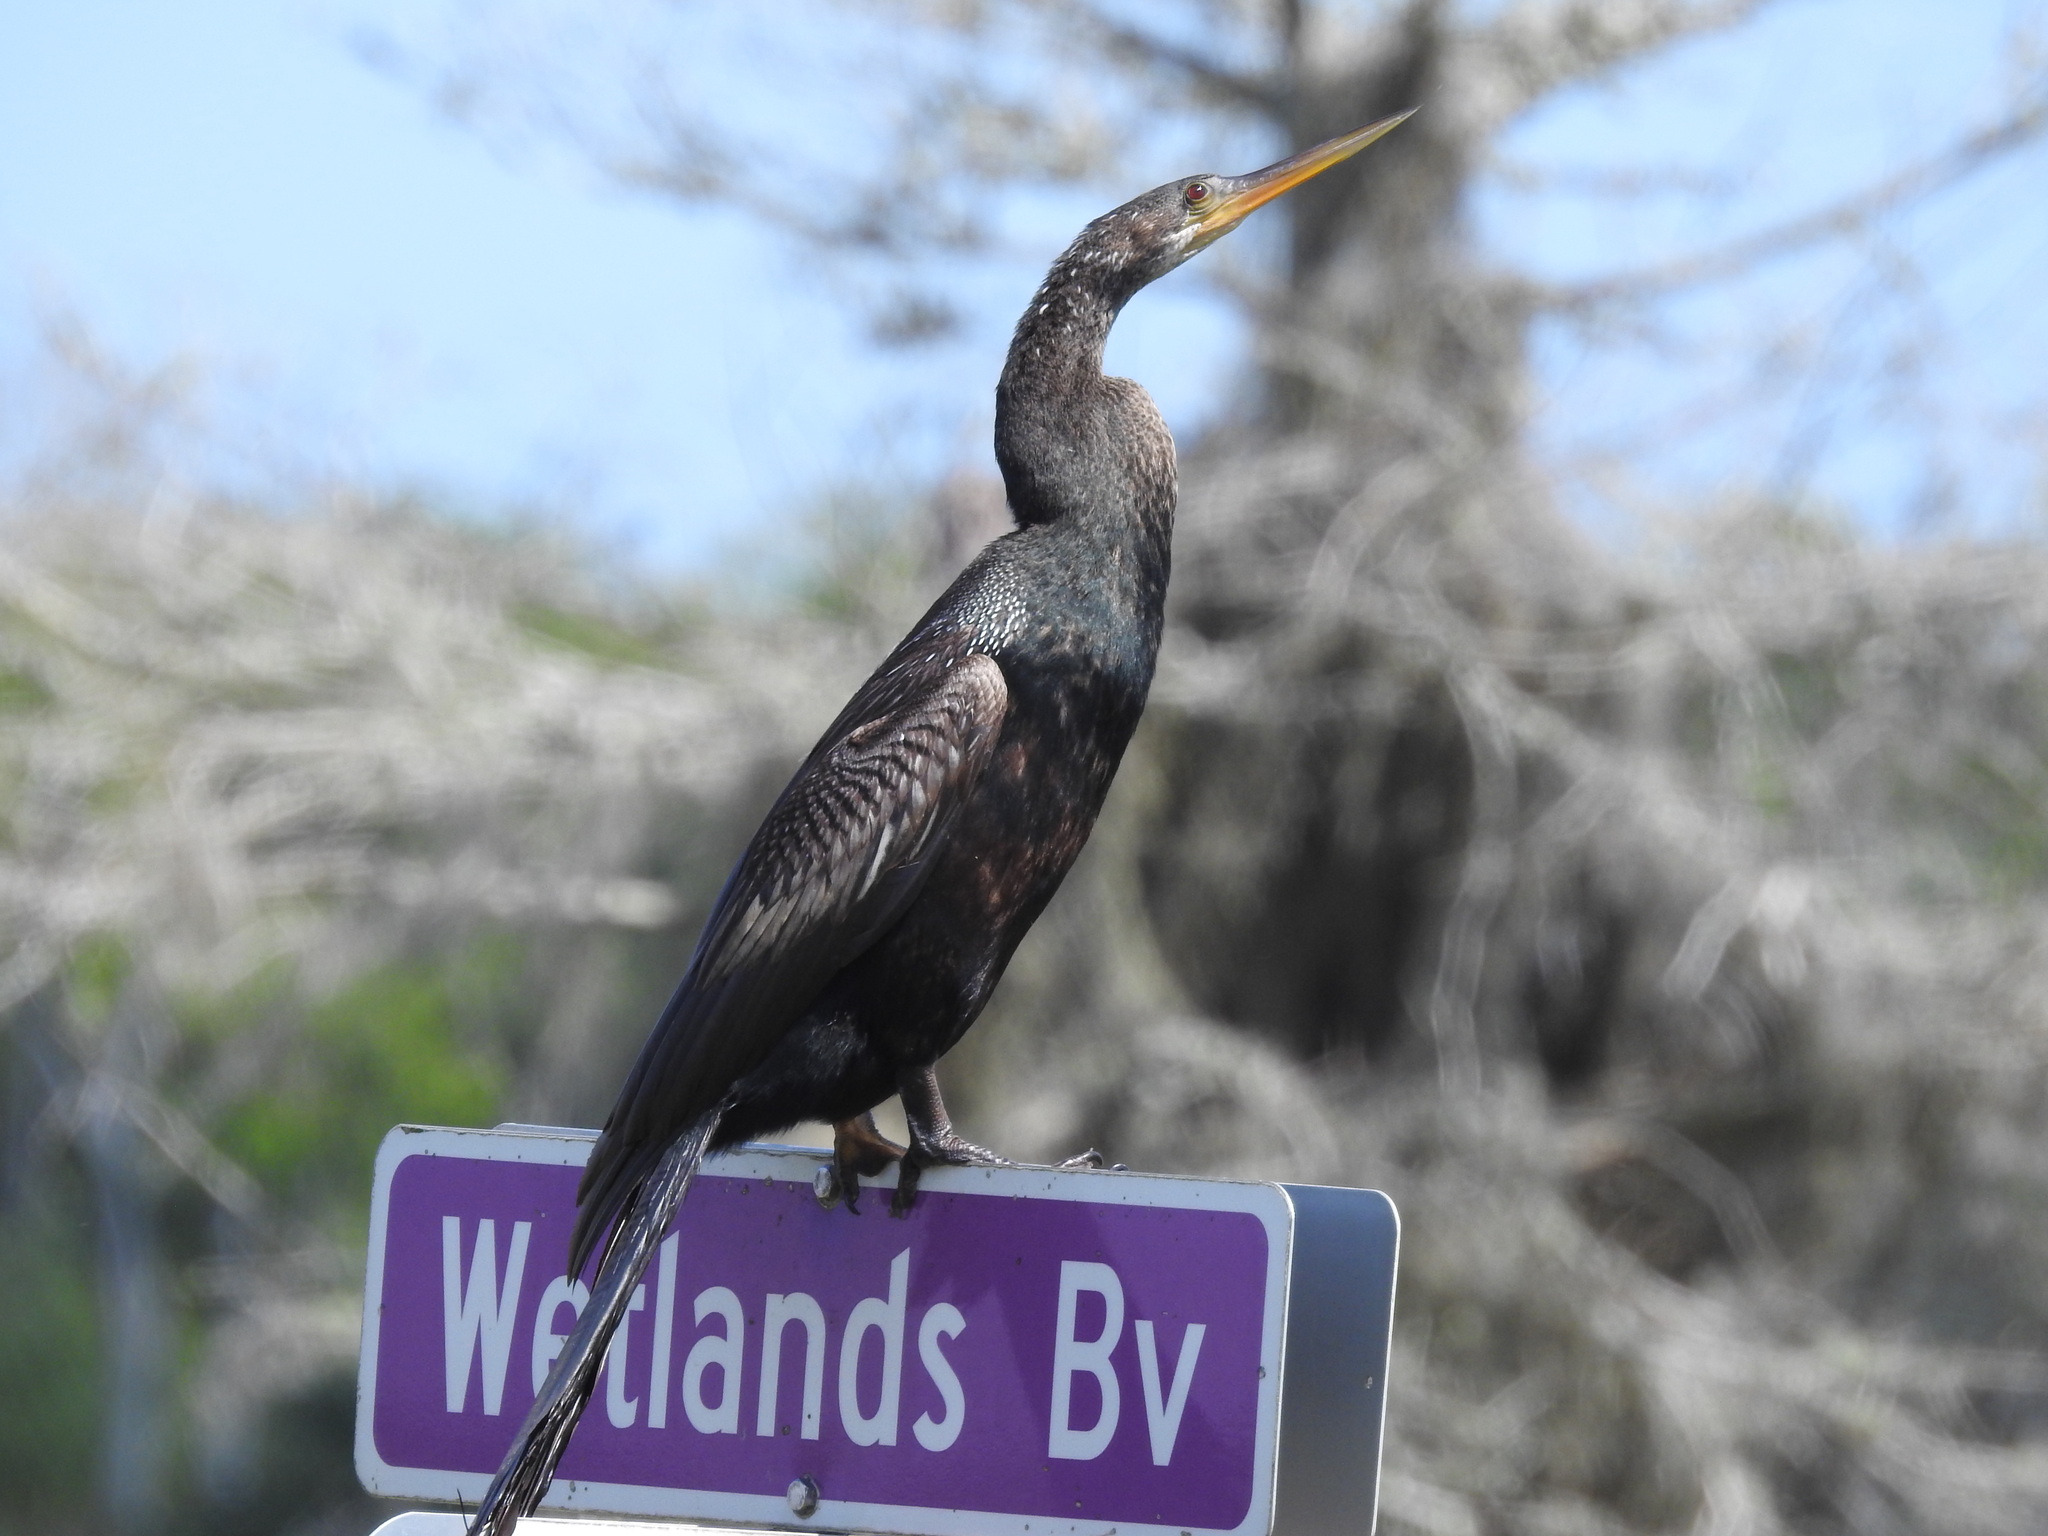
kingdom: Animalia
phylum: Chordata
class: Aves
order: Suliformes
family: Anhingidae
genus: Anhinga
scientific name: Anhinga anhinga
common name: Anhinga
